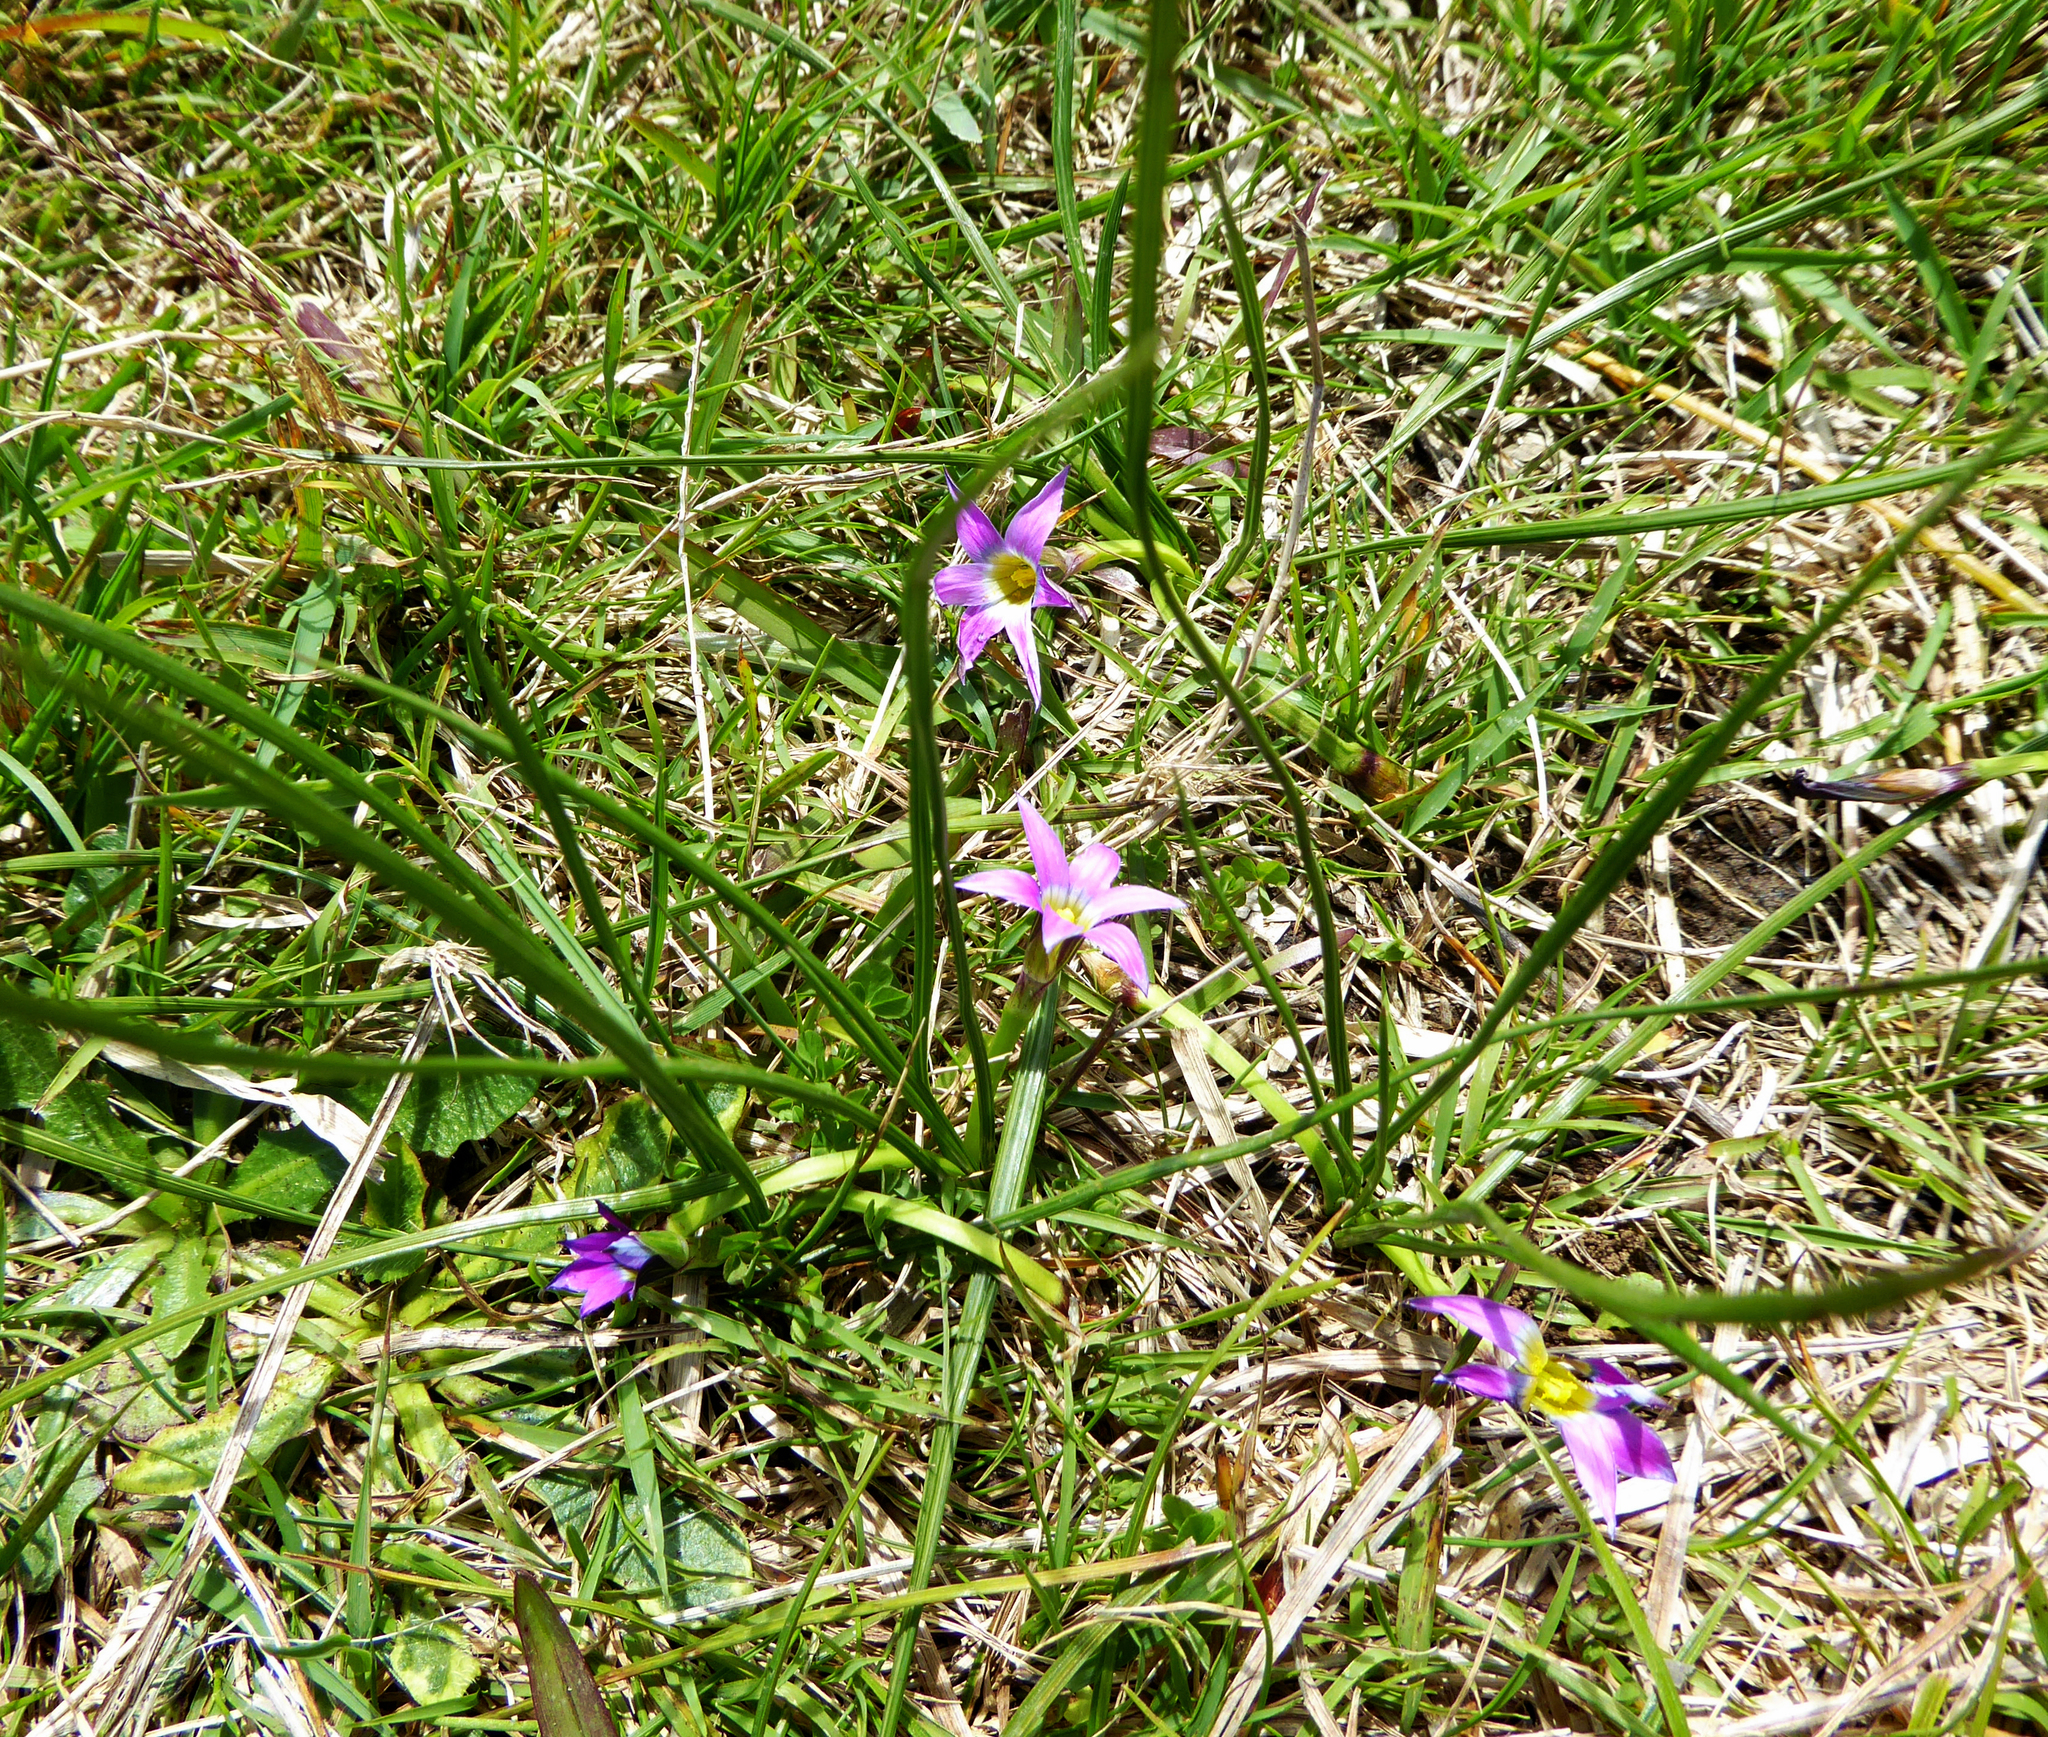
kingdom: Plantae
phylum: Tracheophyta
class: Liliopsida
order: Asparagales
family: Iridaceae
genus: Romulea
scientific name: Romulea rosea
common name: Oniongrass
